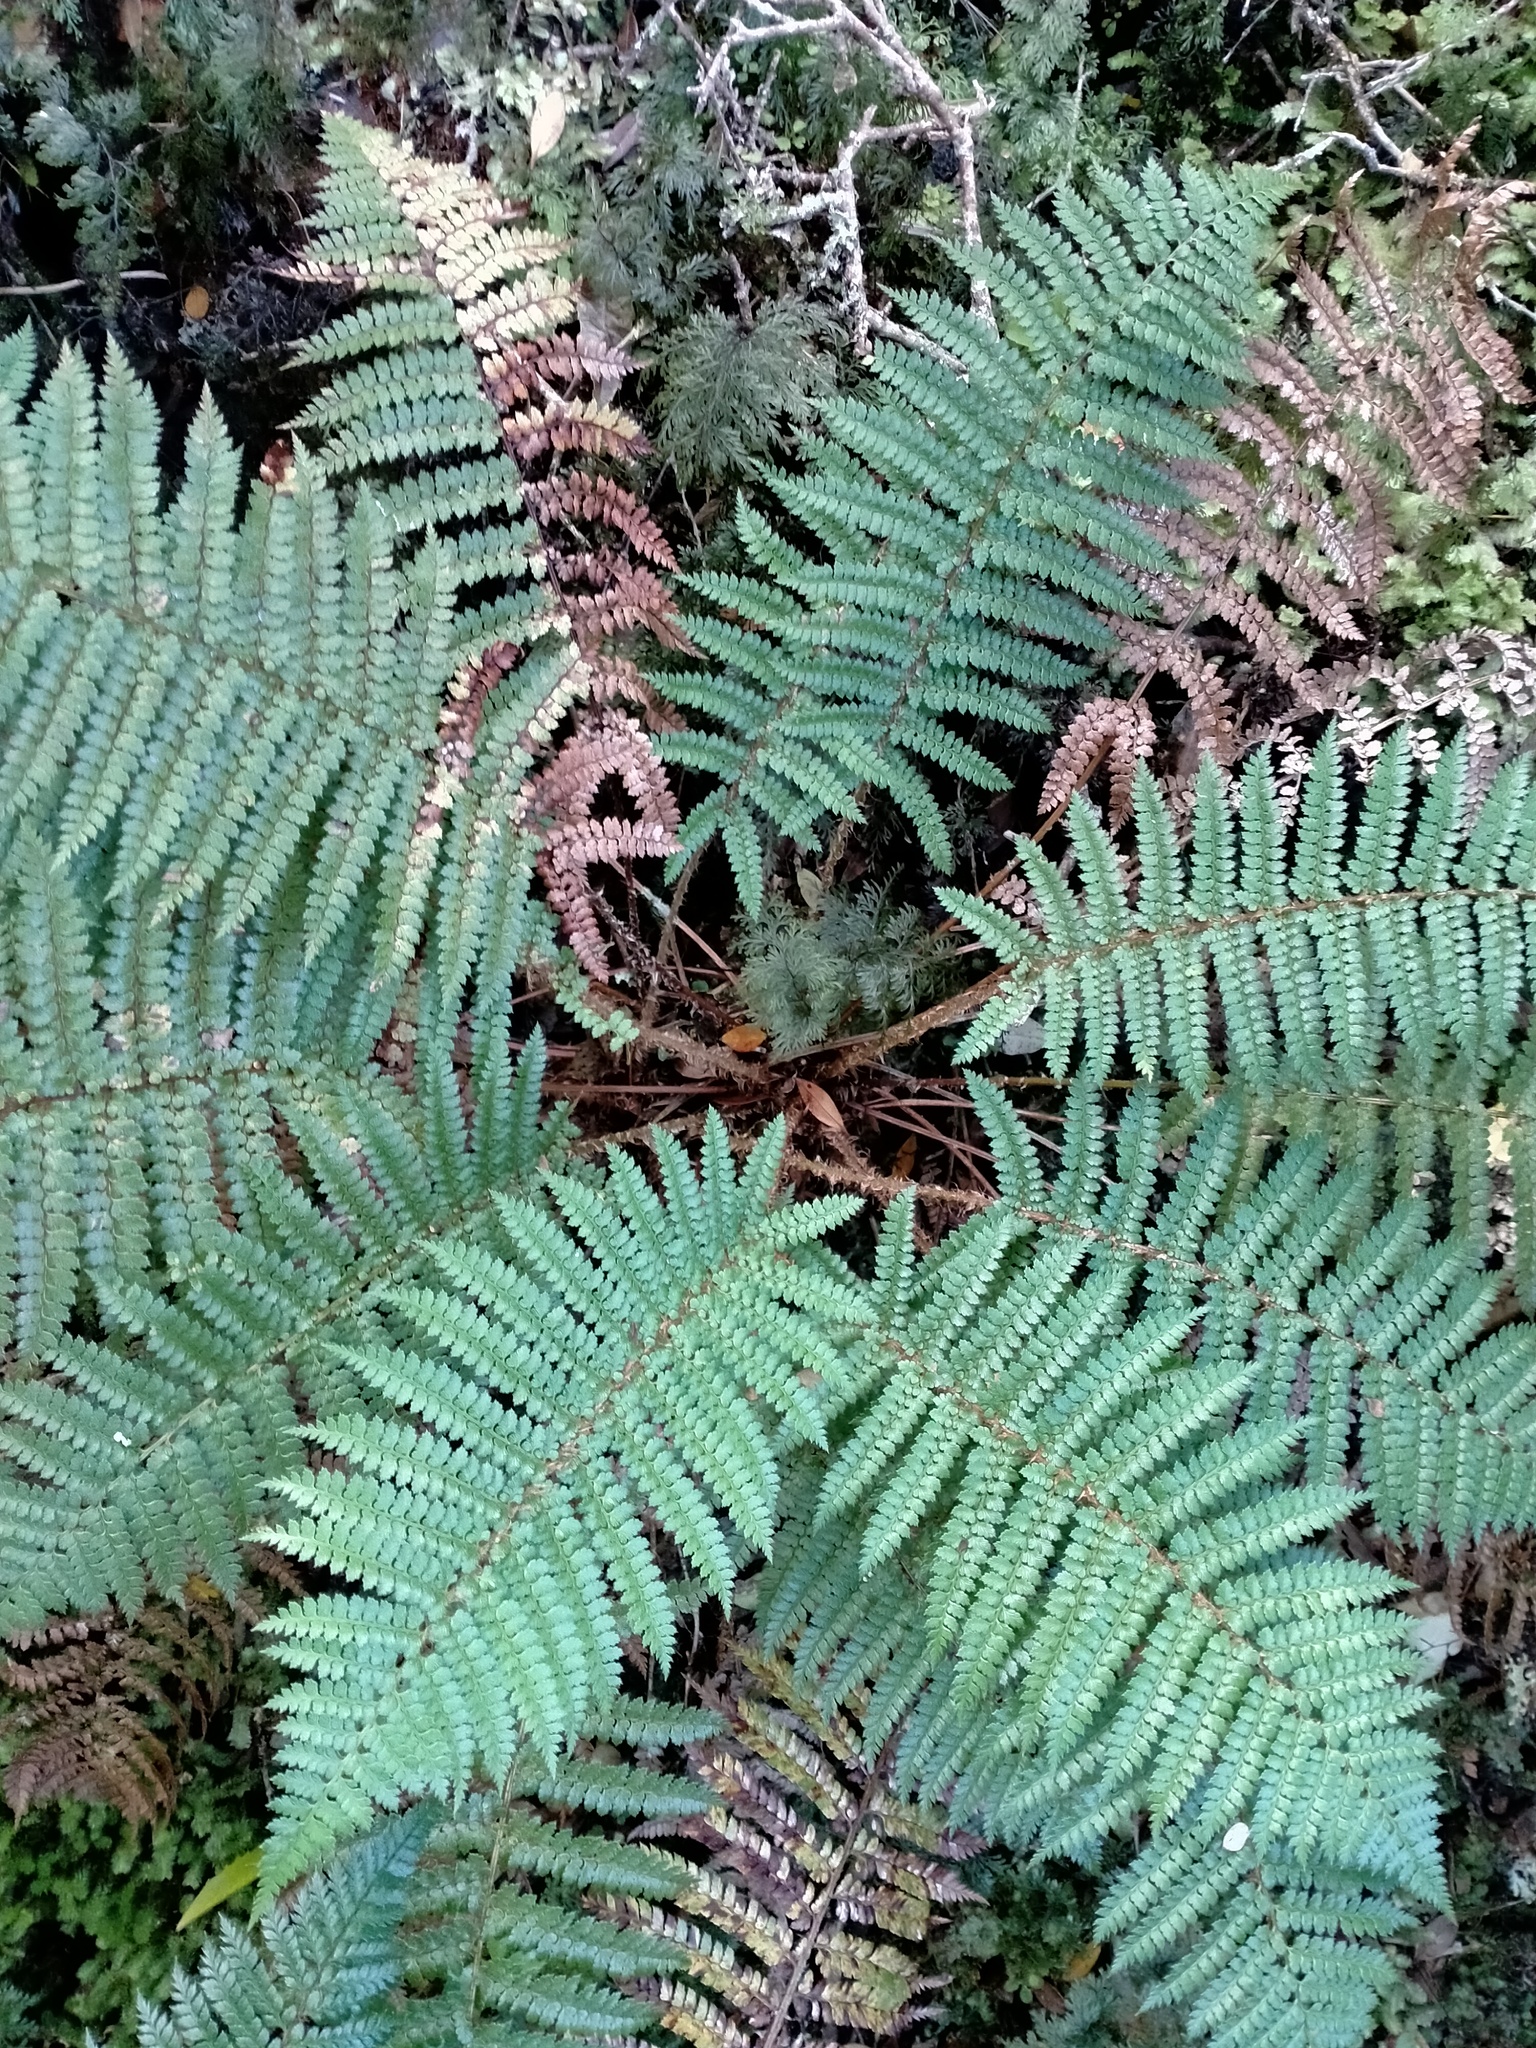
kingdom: Plantae
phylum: Tracheophyta
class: Polypodiopsida
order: Polypodiales
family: Dryopteridaceae
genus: Polystichum
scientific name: Polystichum vestitum
